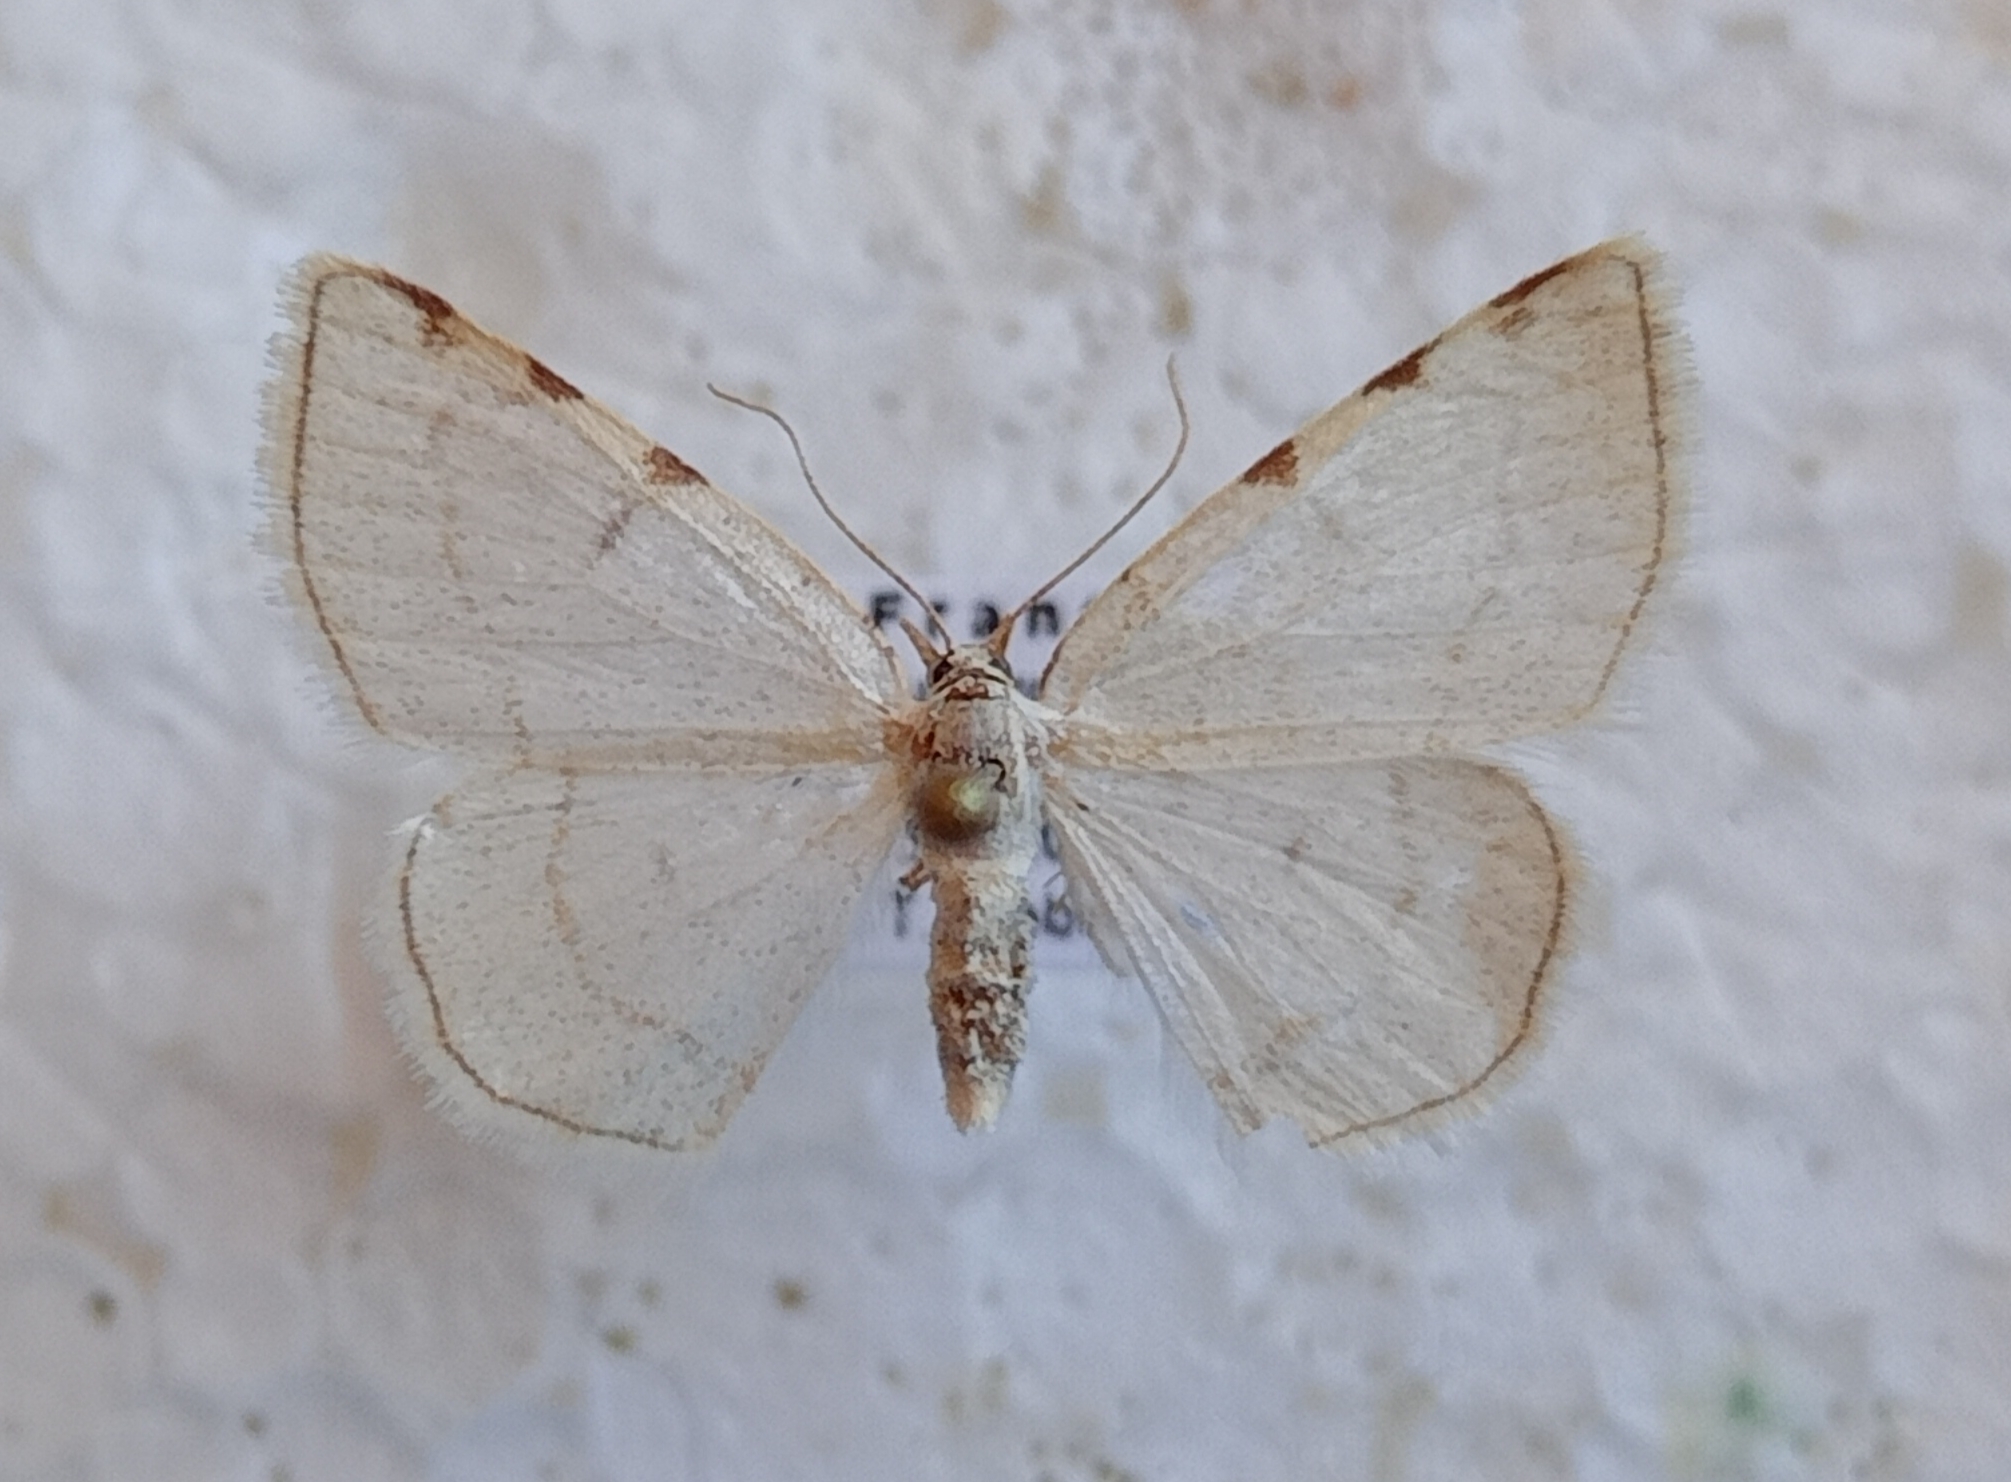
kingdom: Animalia
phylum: Arthropoda
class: Insecta
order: Lepidoptera
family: Geometridae
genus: Stegania
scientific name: Stegania trimaculata
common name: Dorset cream wave
